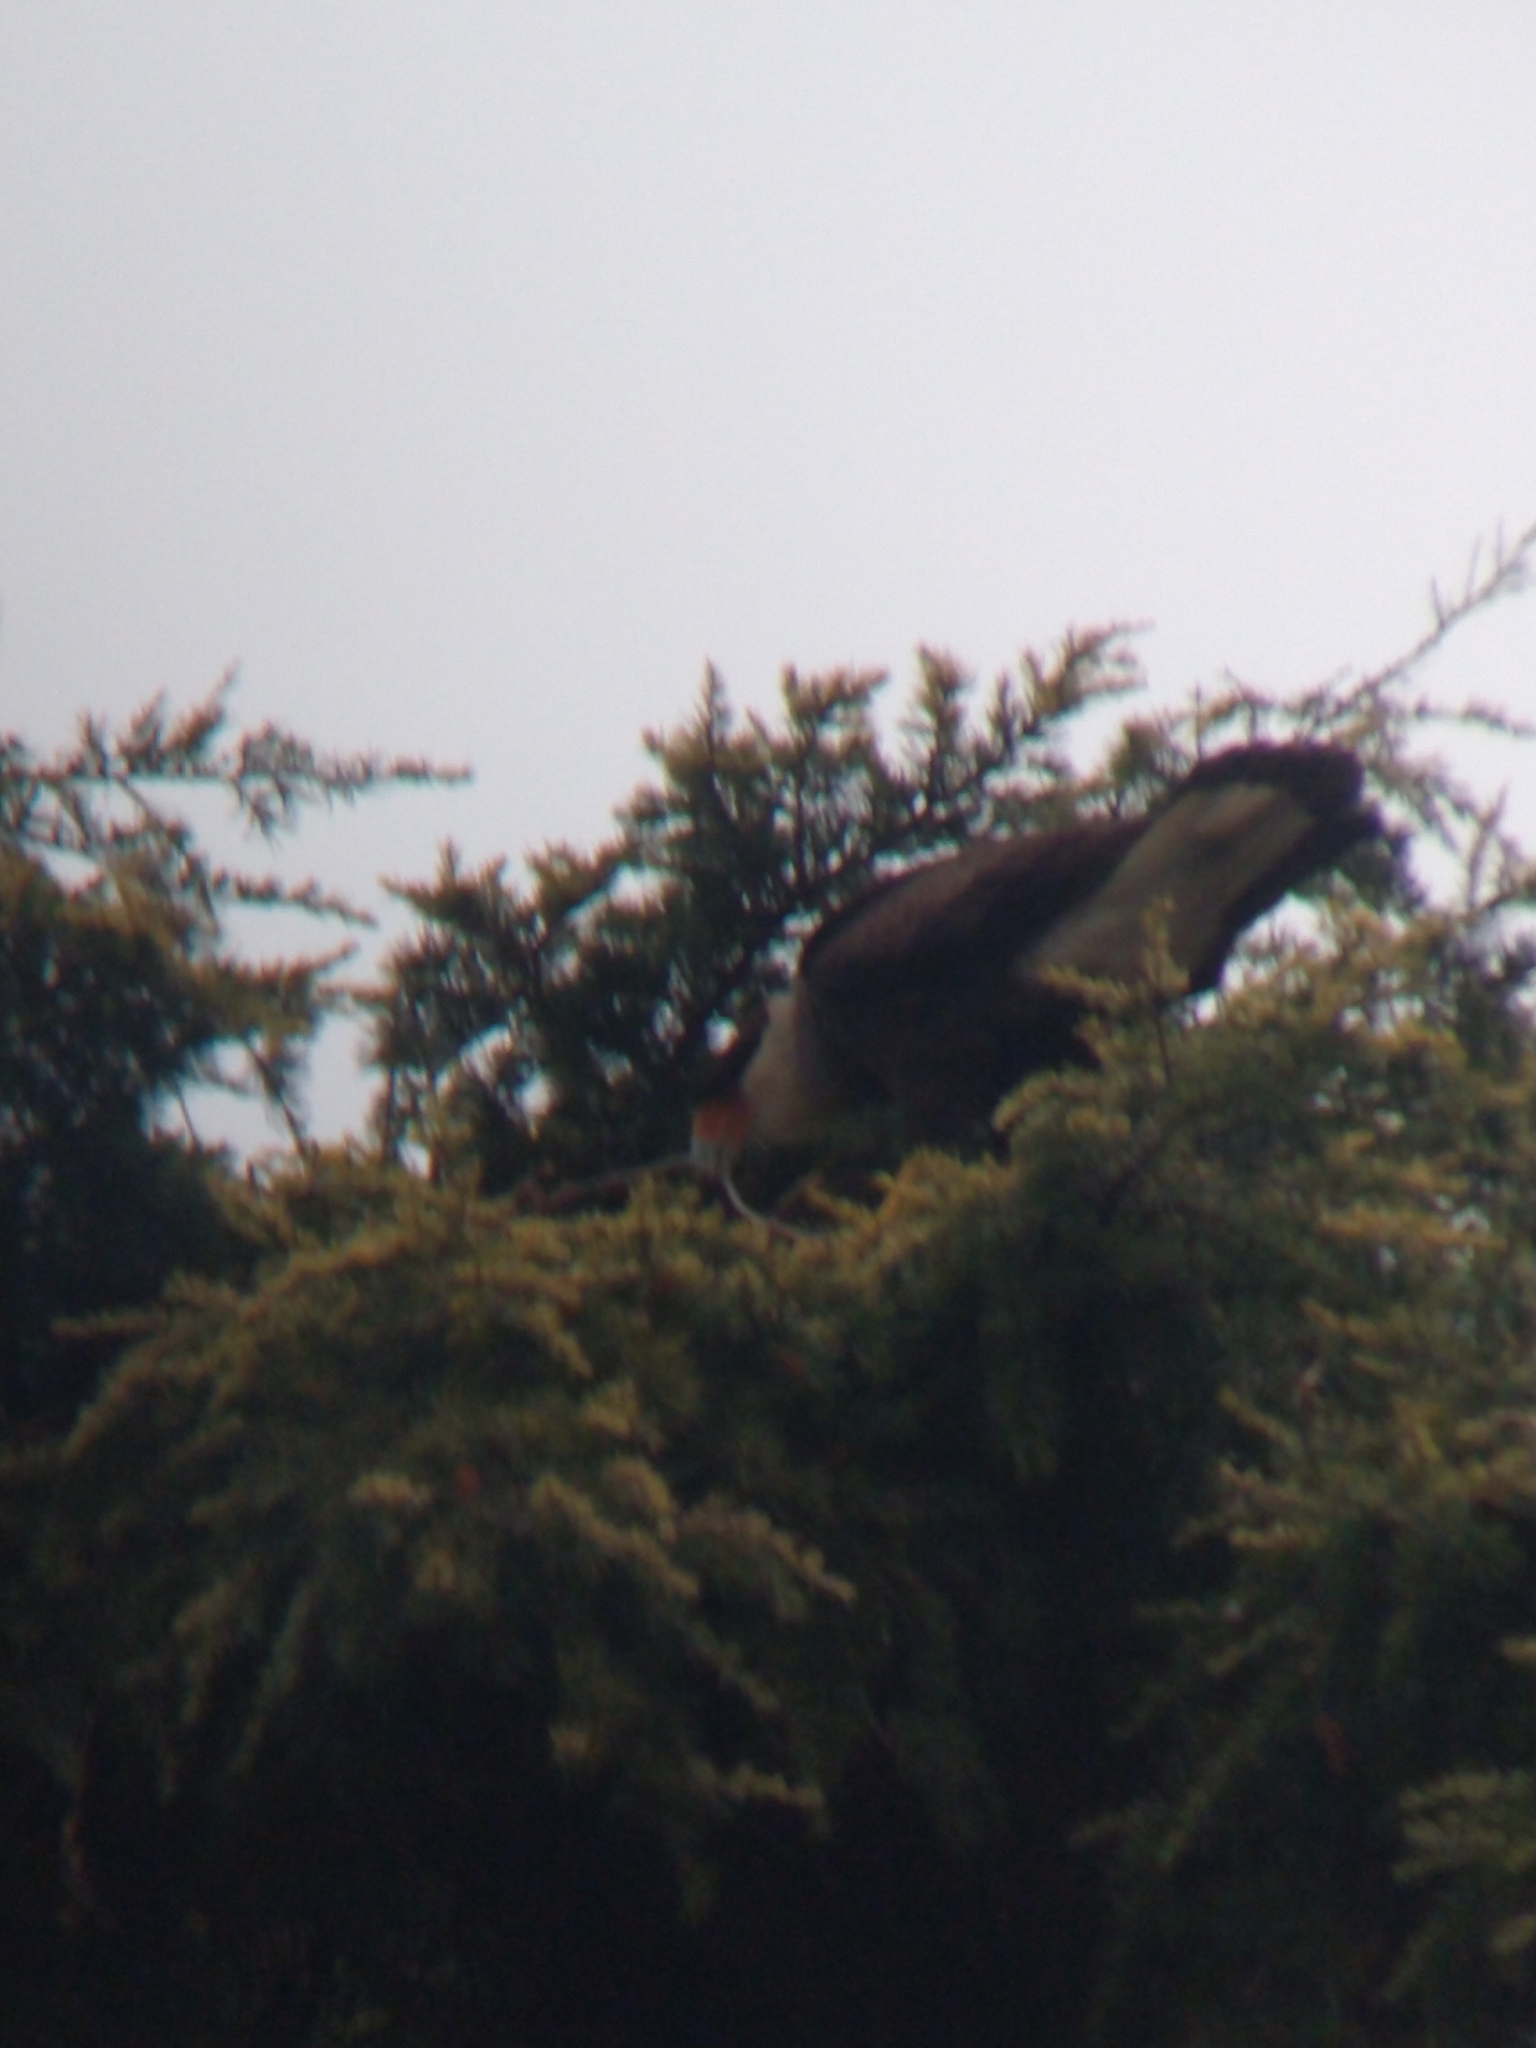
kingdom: Animalia
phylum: Chordata
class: Aves
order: Falconiformes
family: Falconidae
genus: Caracara
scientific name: Caracara plancus
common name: Southern caracara
